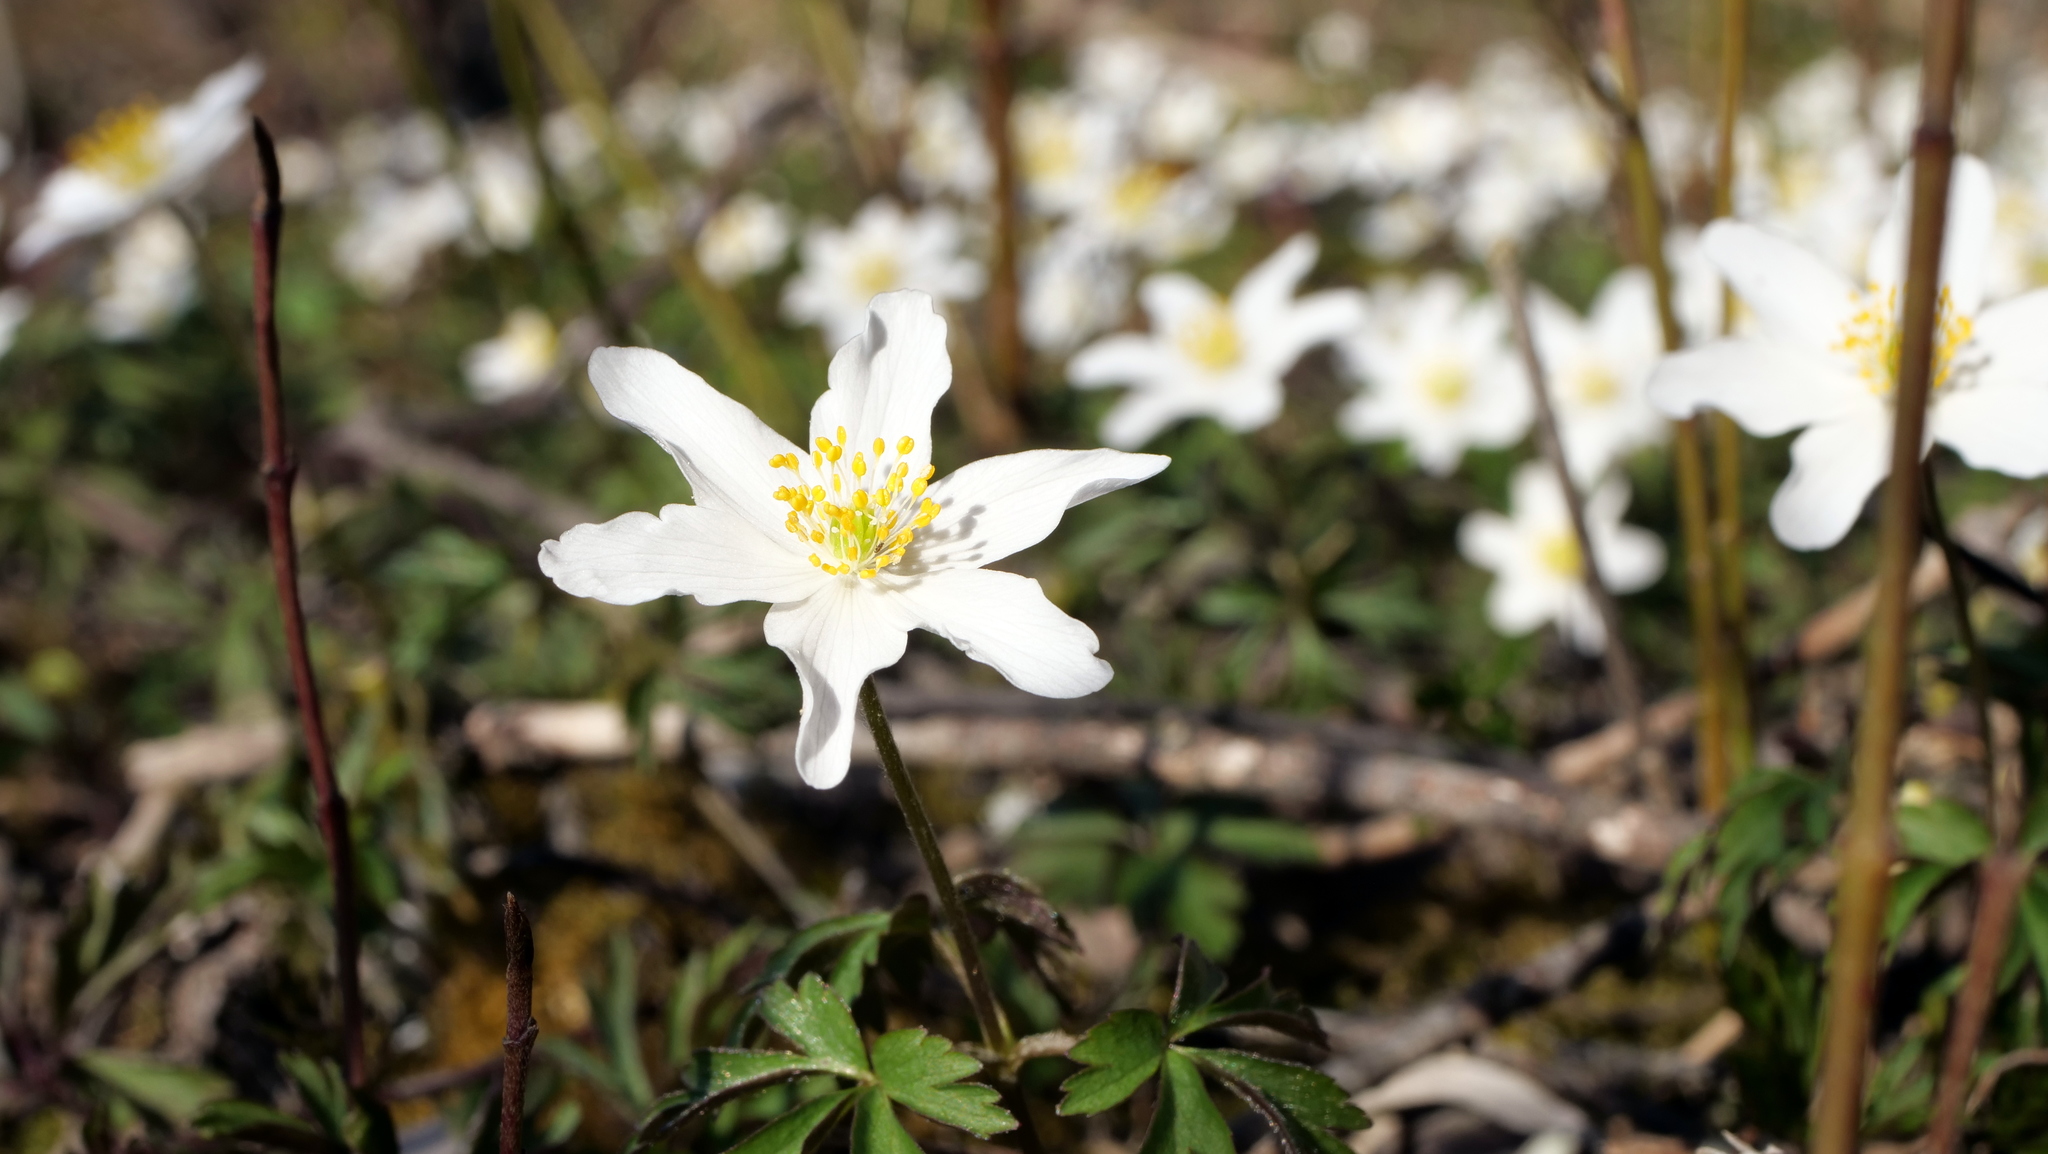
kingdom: Plantae
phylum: Tracheophyta
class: Magnoliopsida
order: Ranunculales
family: Ranunculaceae
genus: Anemone
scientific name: Anemone nemorosa
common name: Wood anemone
